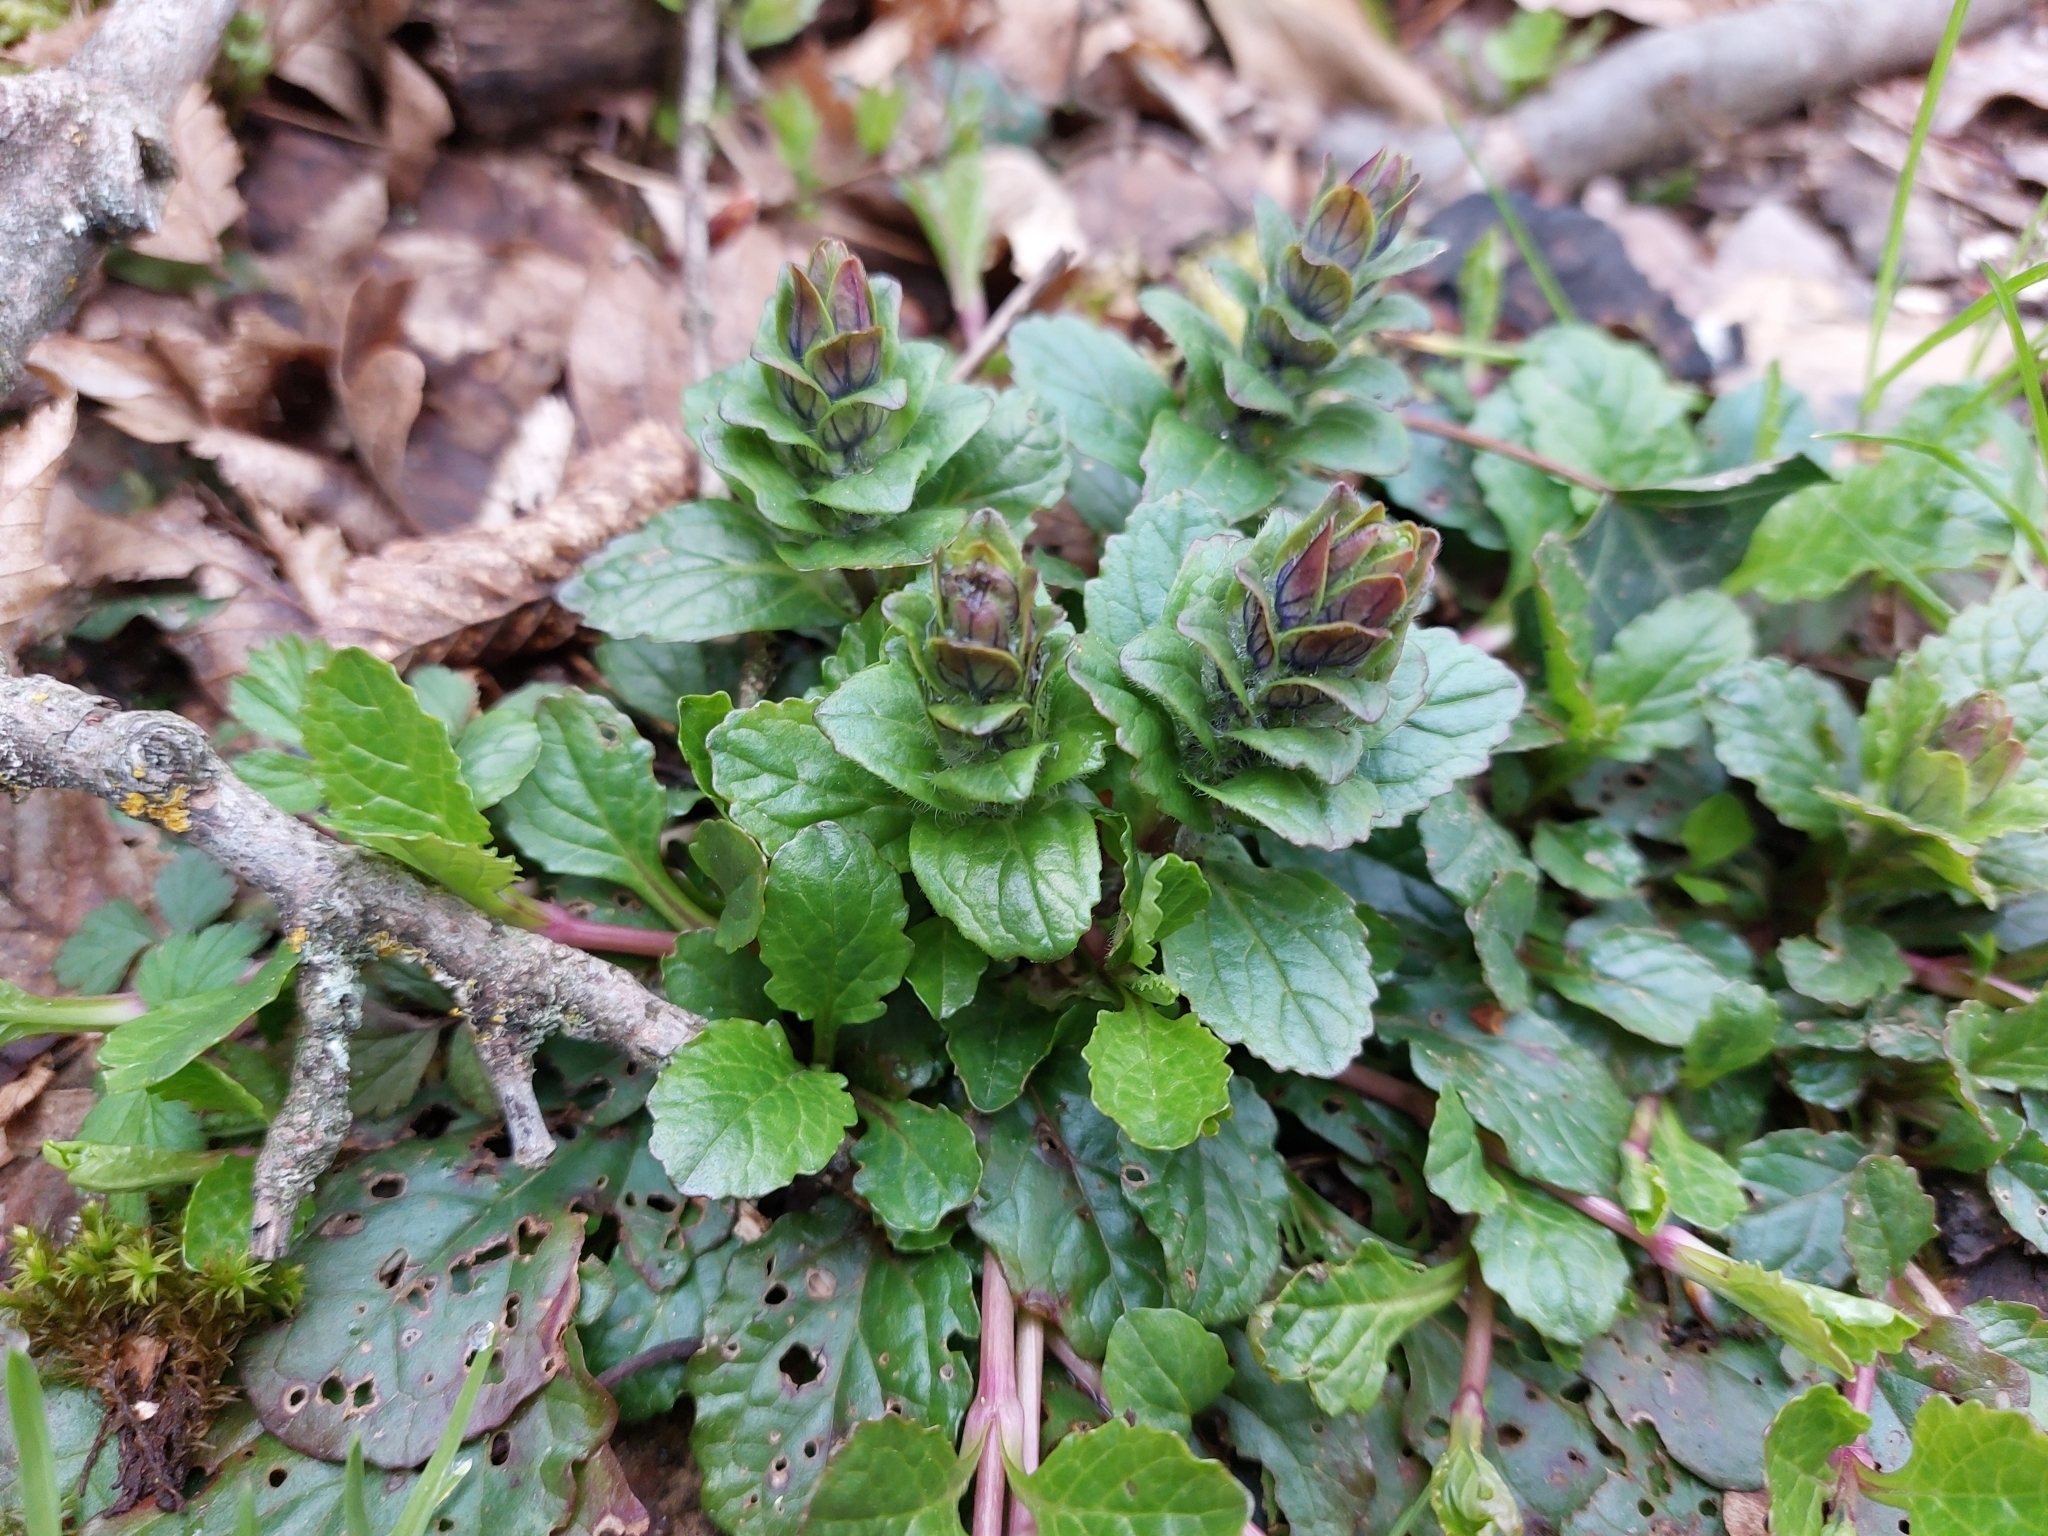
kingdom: Plantae
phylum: Tracheophyta
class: Magnoliopsida
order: Lamiales
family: Lamiaceae
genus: Ajuga
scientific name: Ajuga reptans
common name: Bugle
